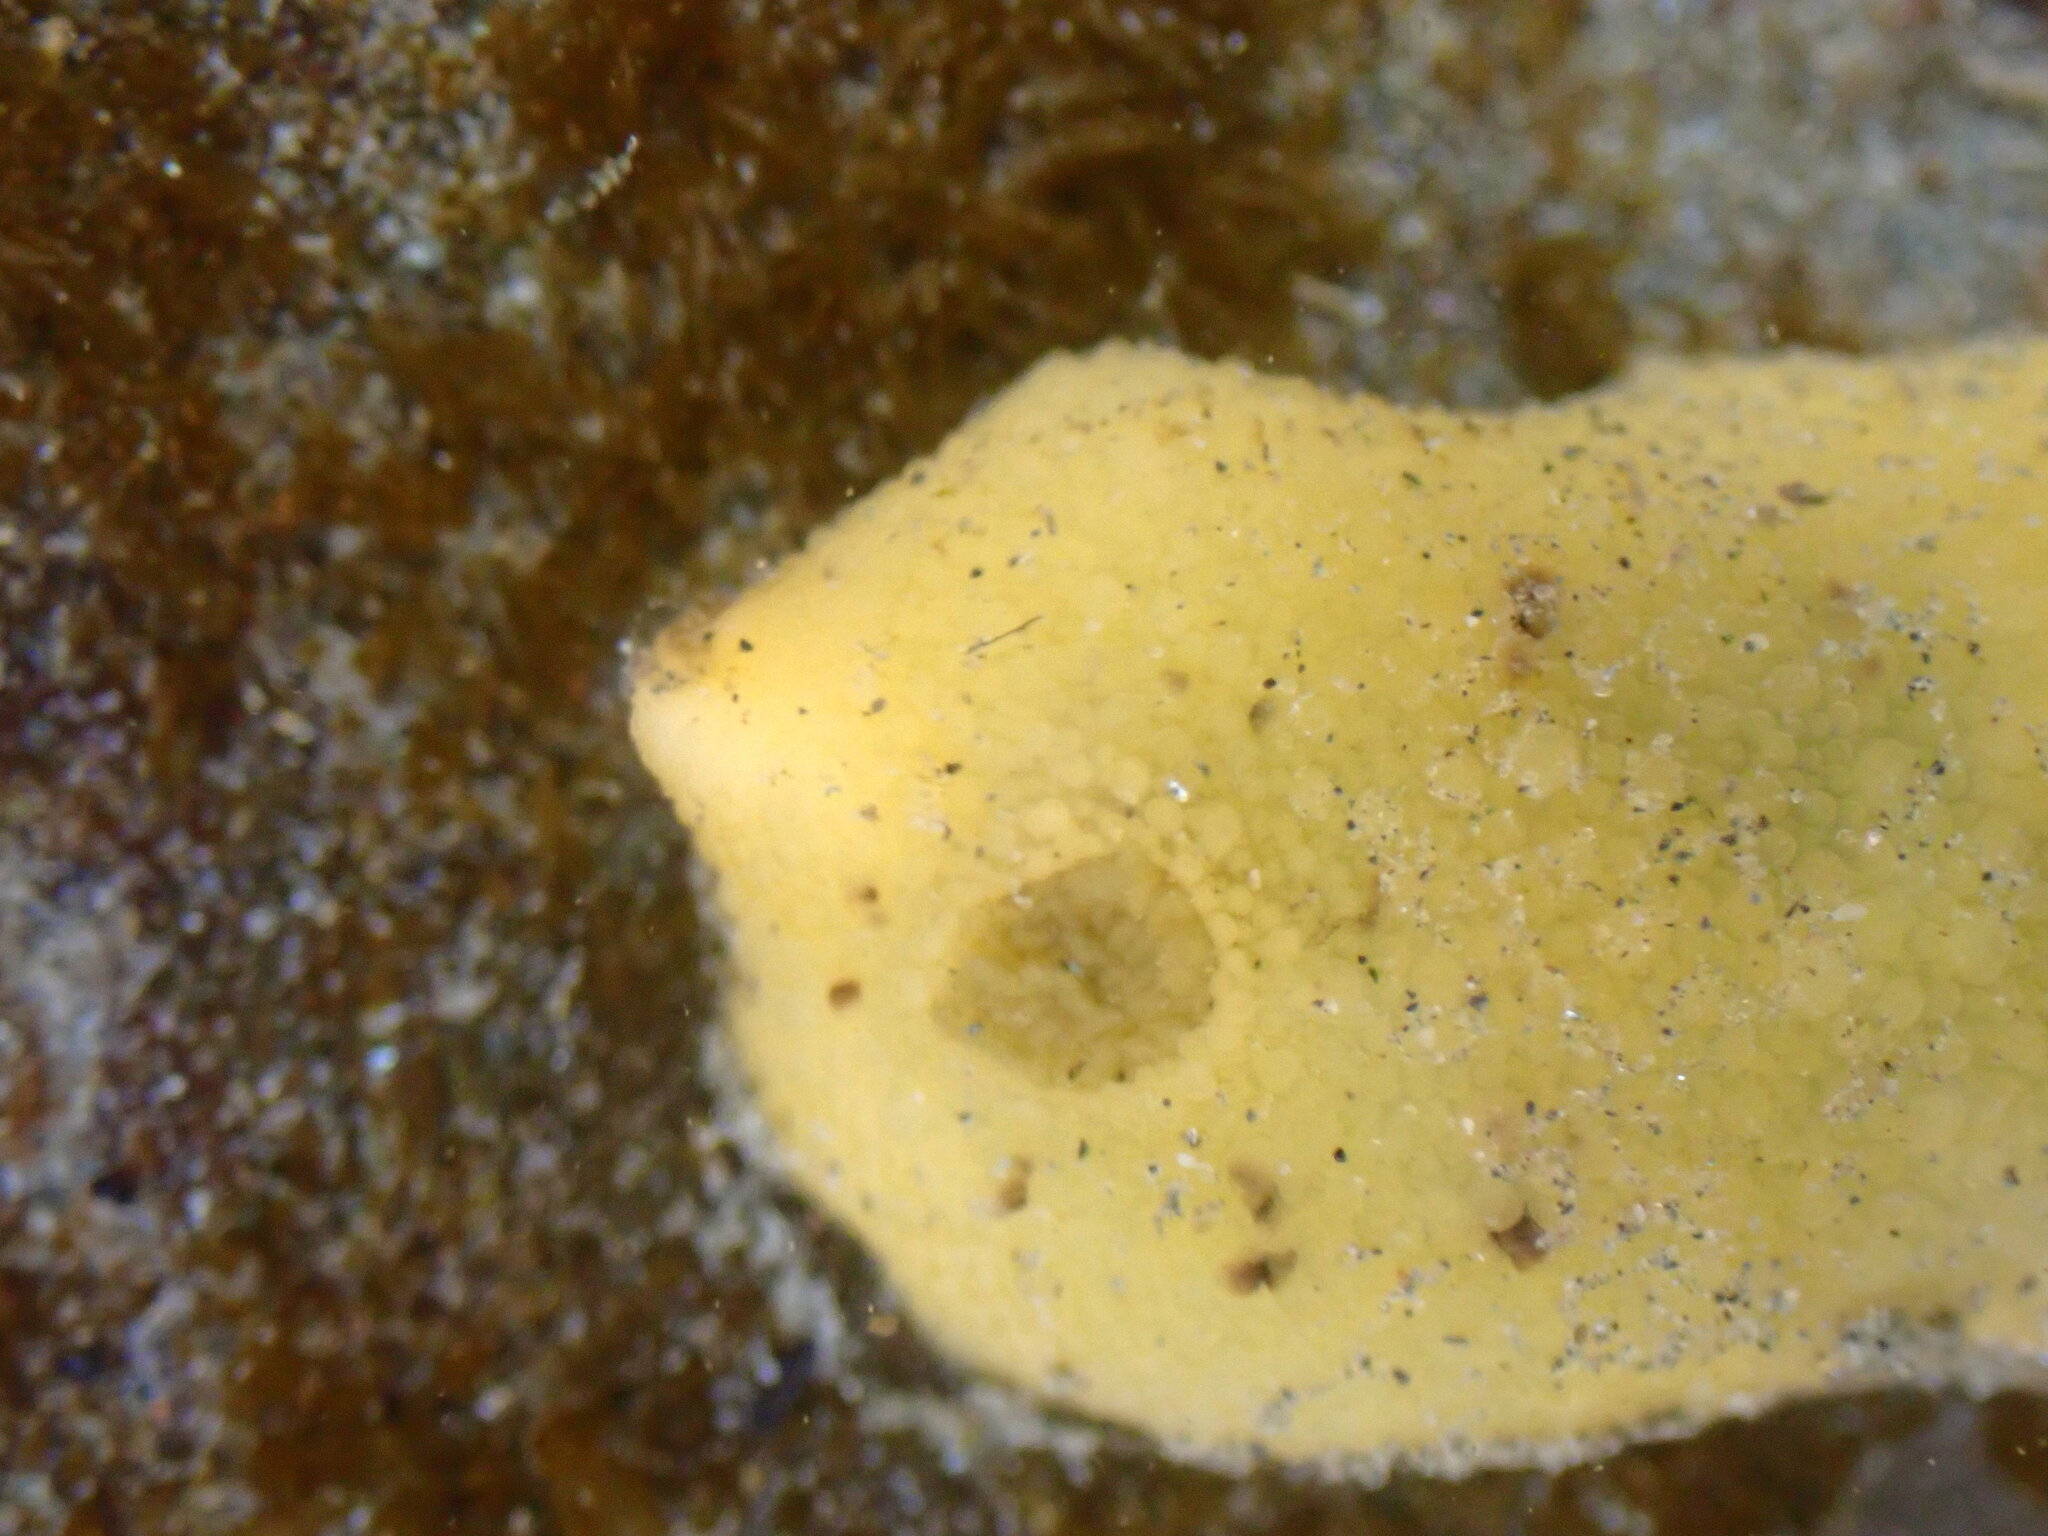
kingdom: Animalia
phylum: Mollusca
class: Gastropoda
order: Nudibranchia
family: Dorididae
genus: Doris
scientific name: Doris montereyensis
